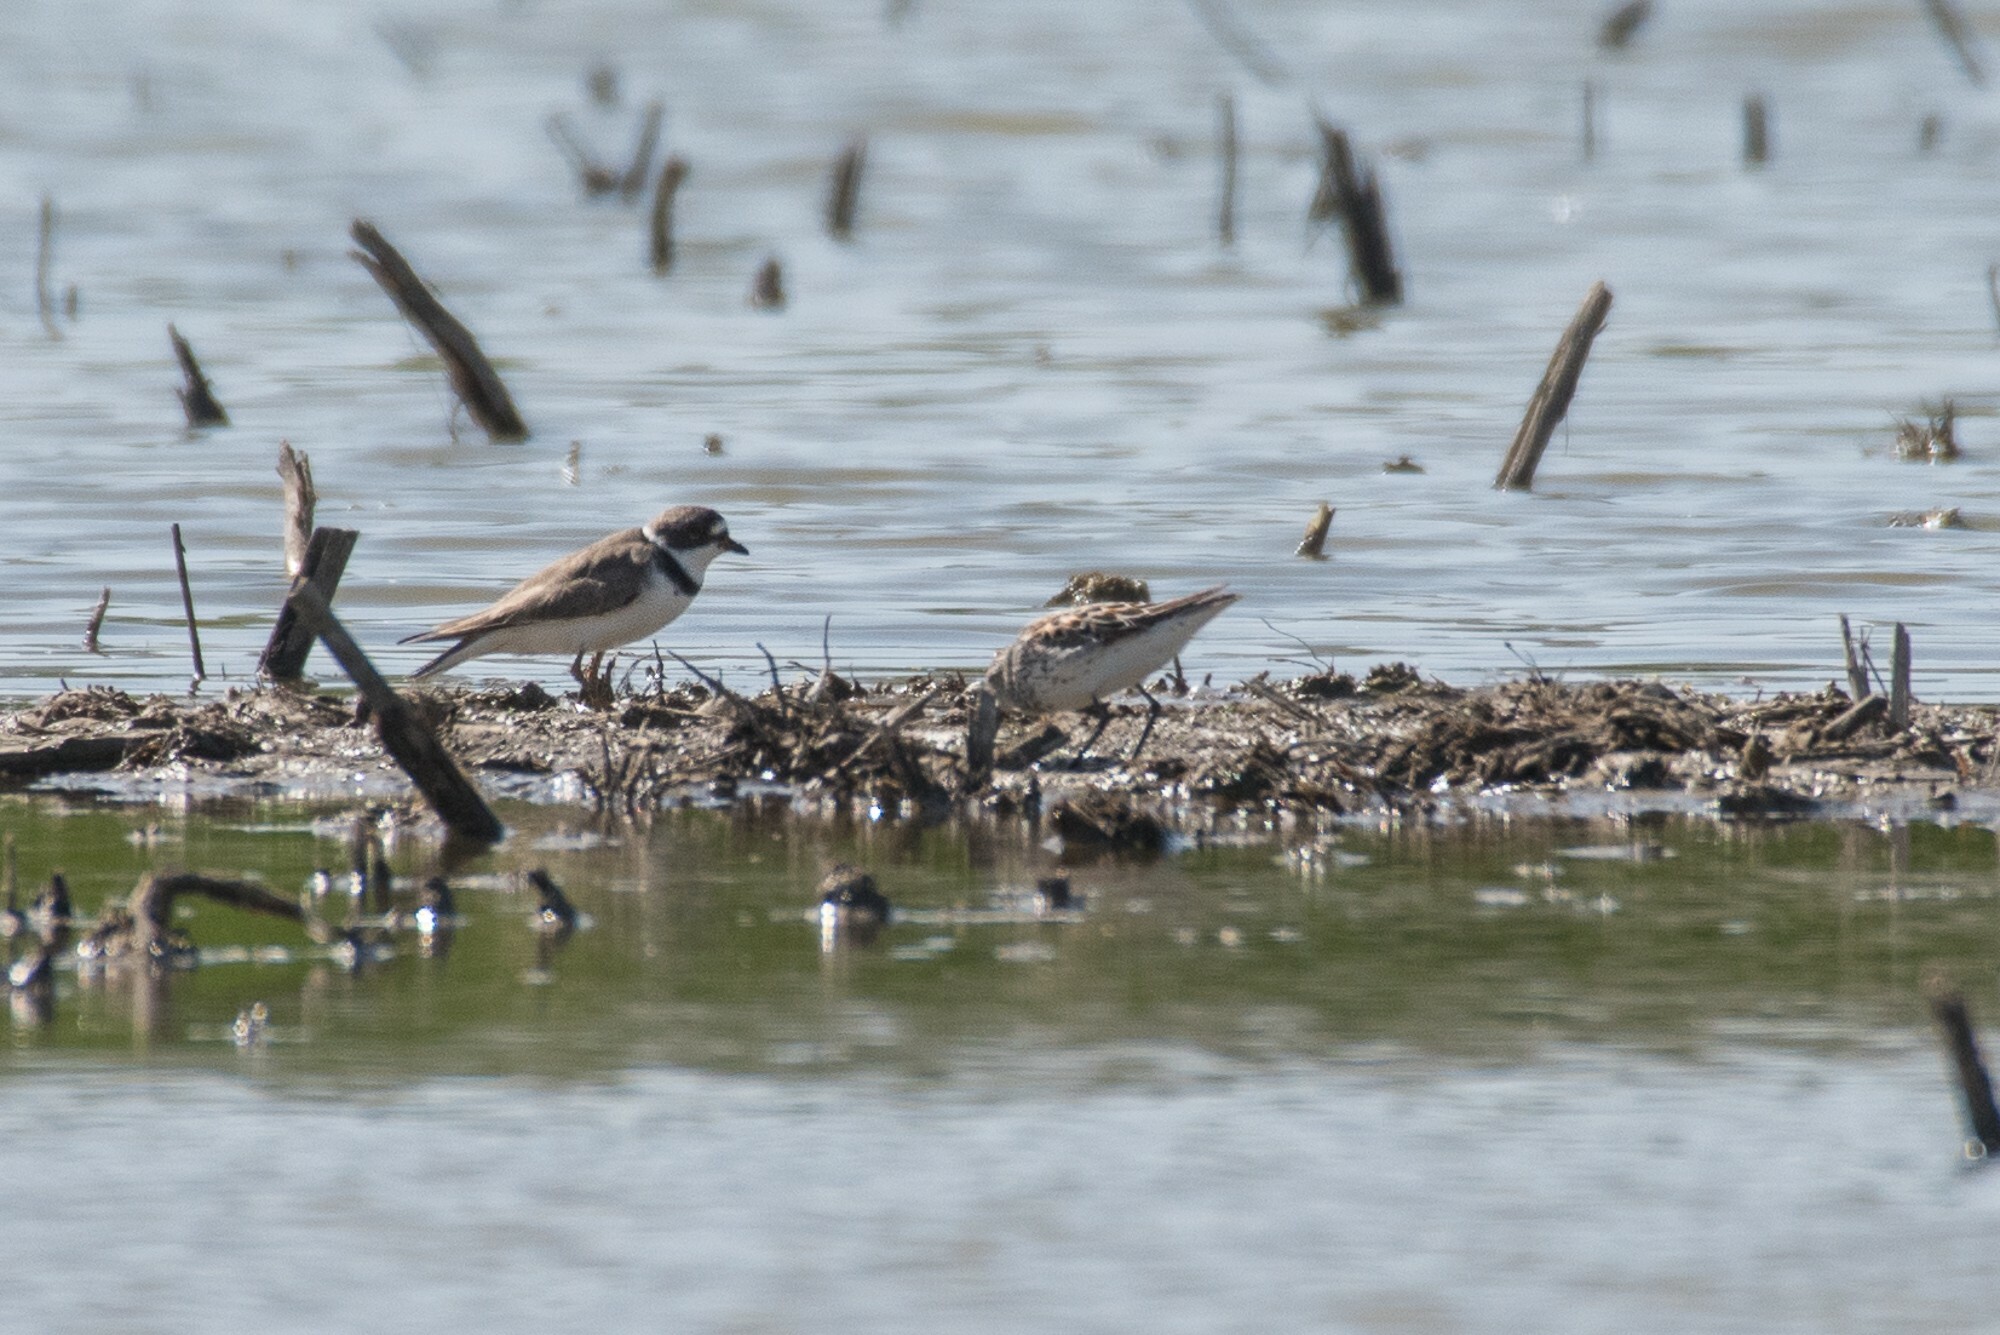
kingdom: Animalia
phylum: Chordata
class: Aves
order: Charadriiformes
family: Charadriidae
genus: Charadrius
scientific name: Charadrius semipalmatus
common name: Semipalmated plover
